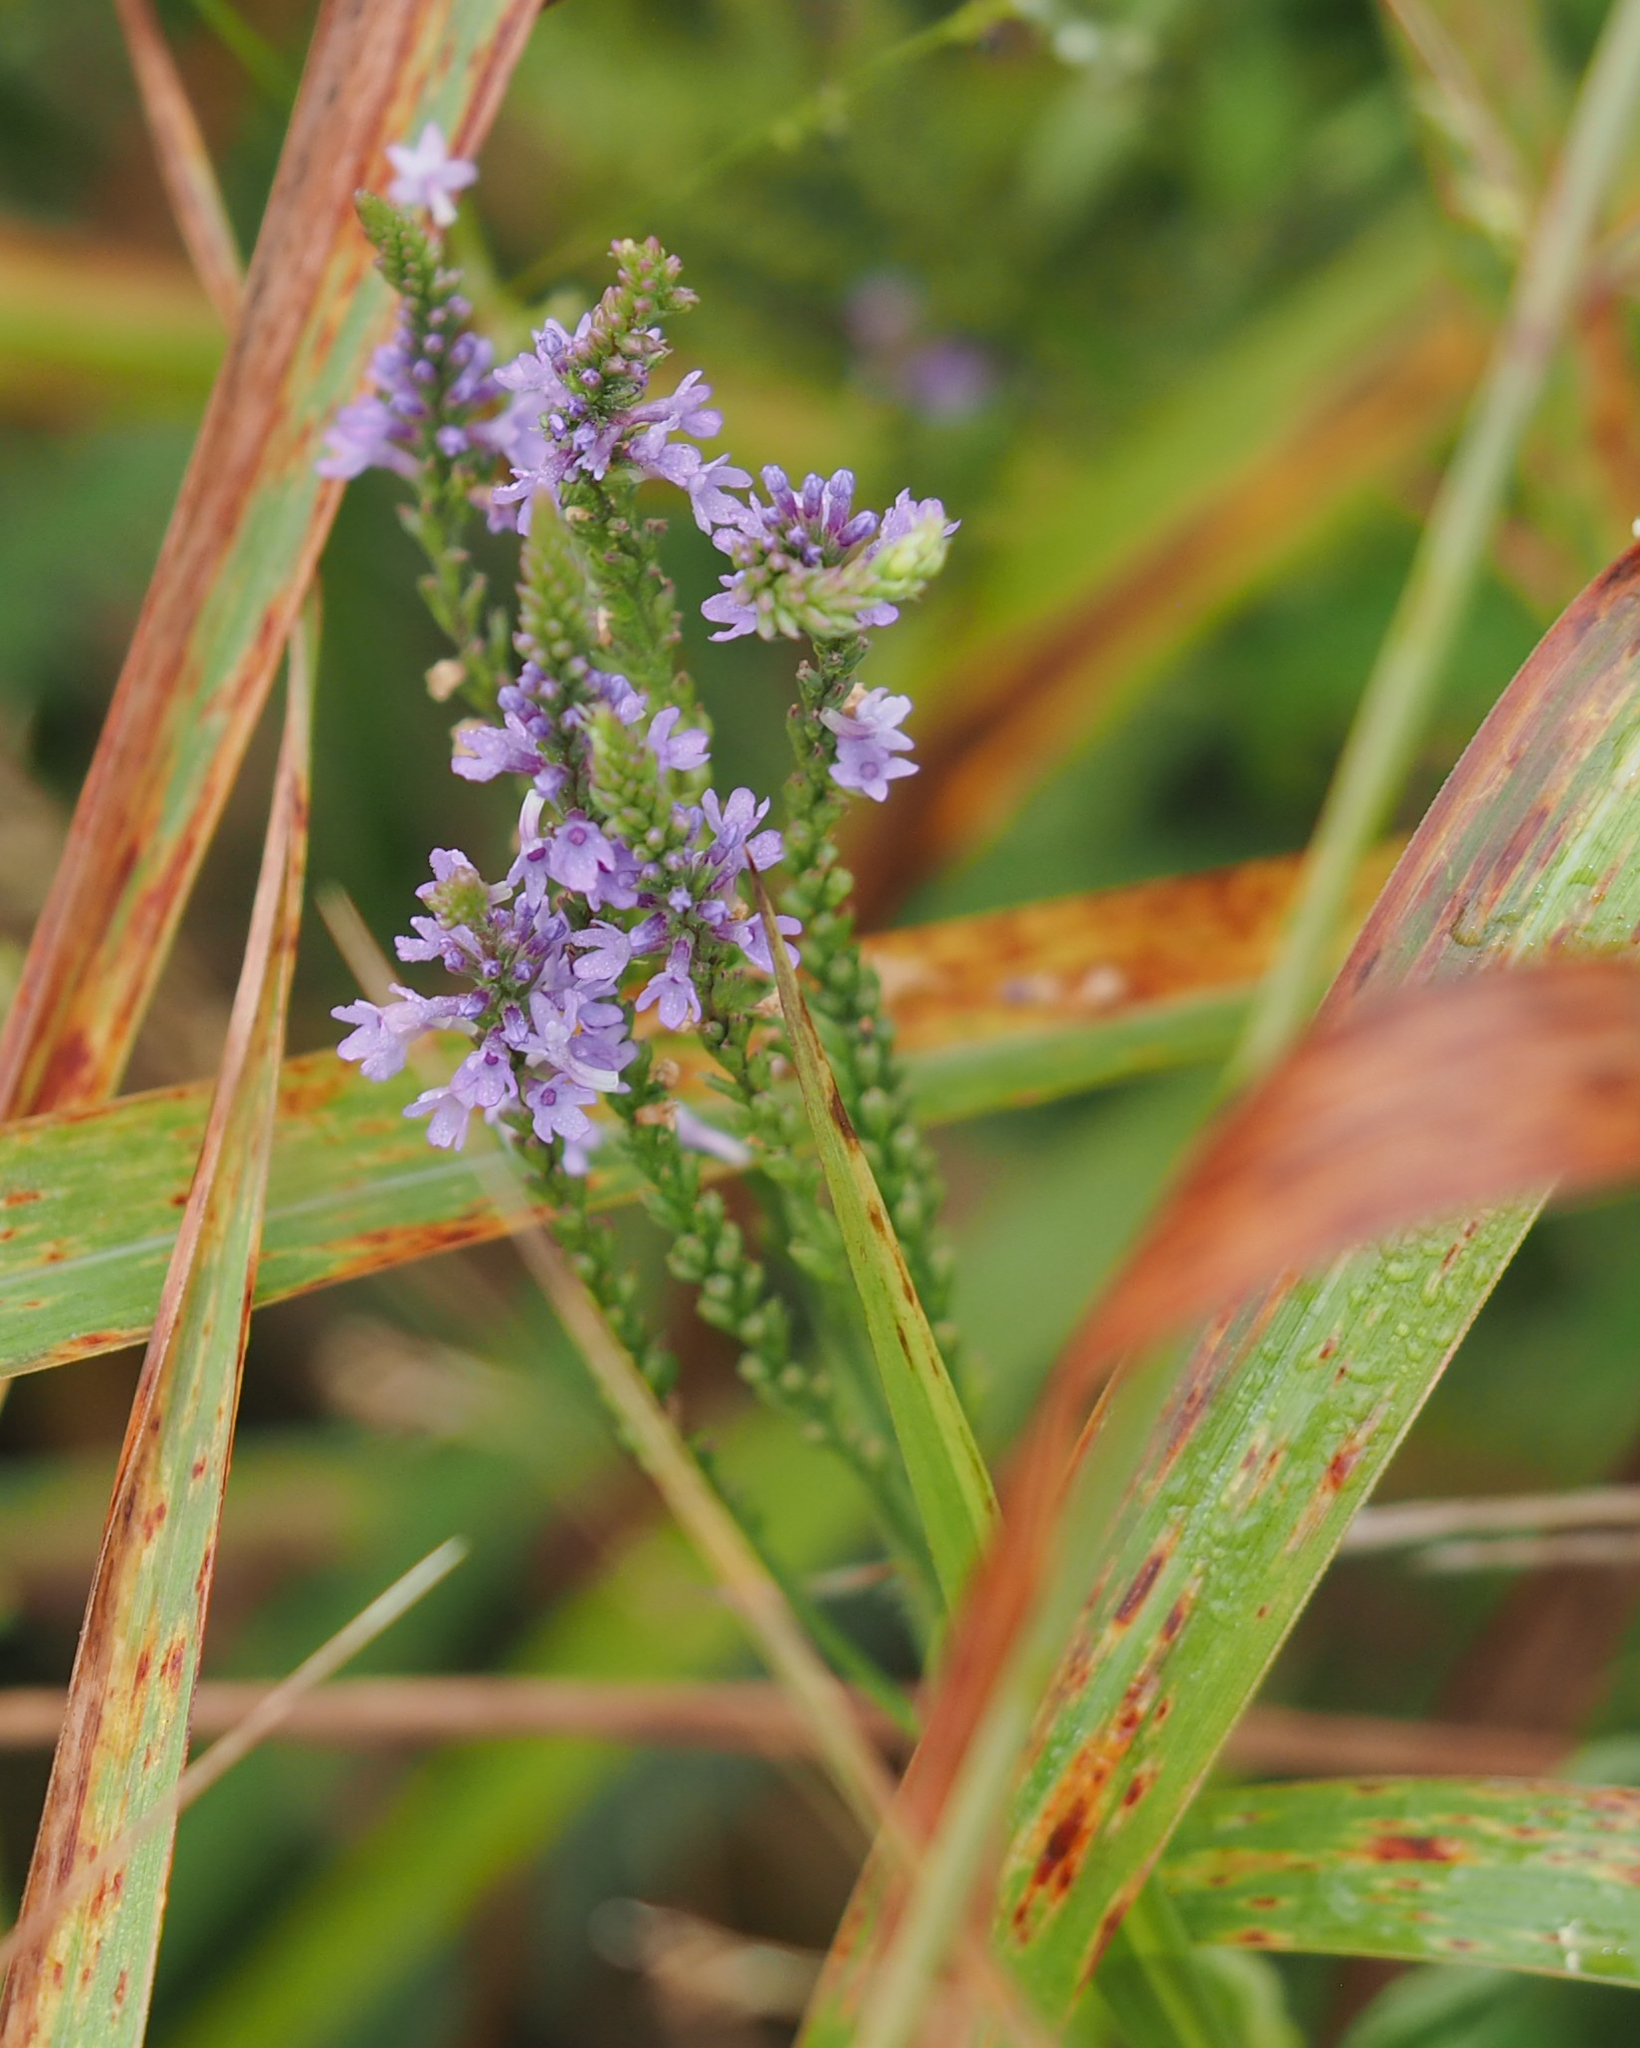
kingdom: Plantae
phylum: Tracheophyta
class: Magnoliopsida
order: Lamiales
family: Verbenaceae
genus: Verbena
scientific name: Verbena hastata
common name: American blue vervain
